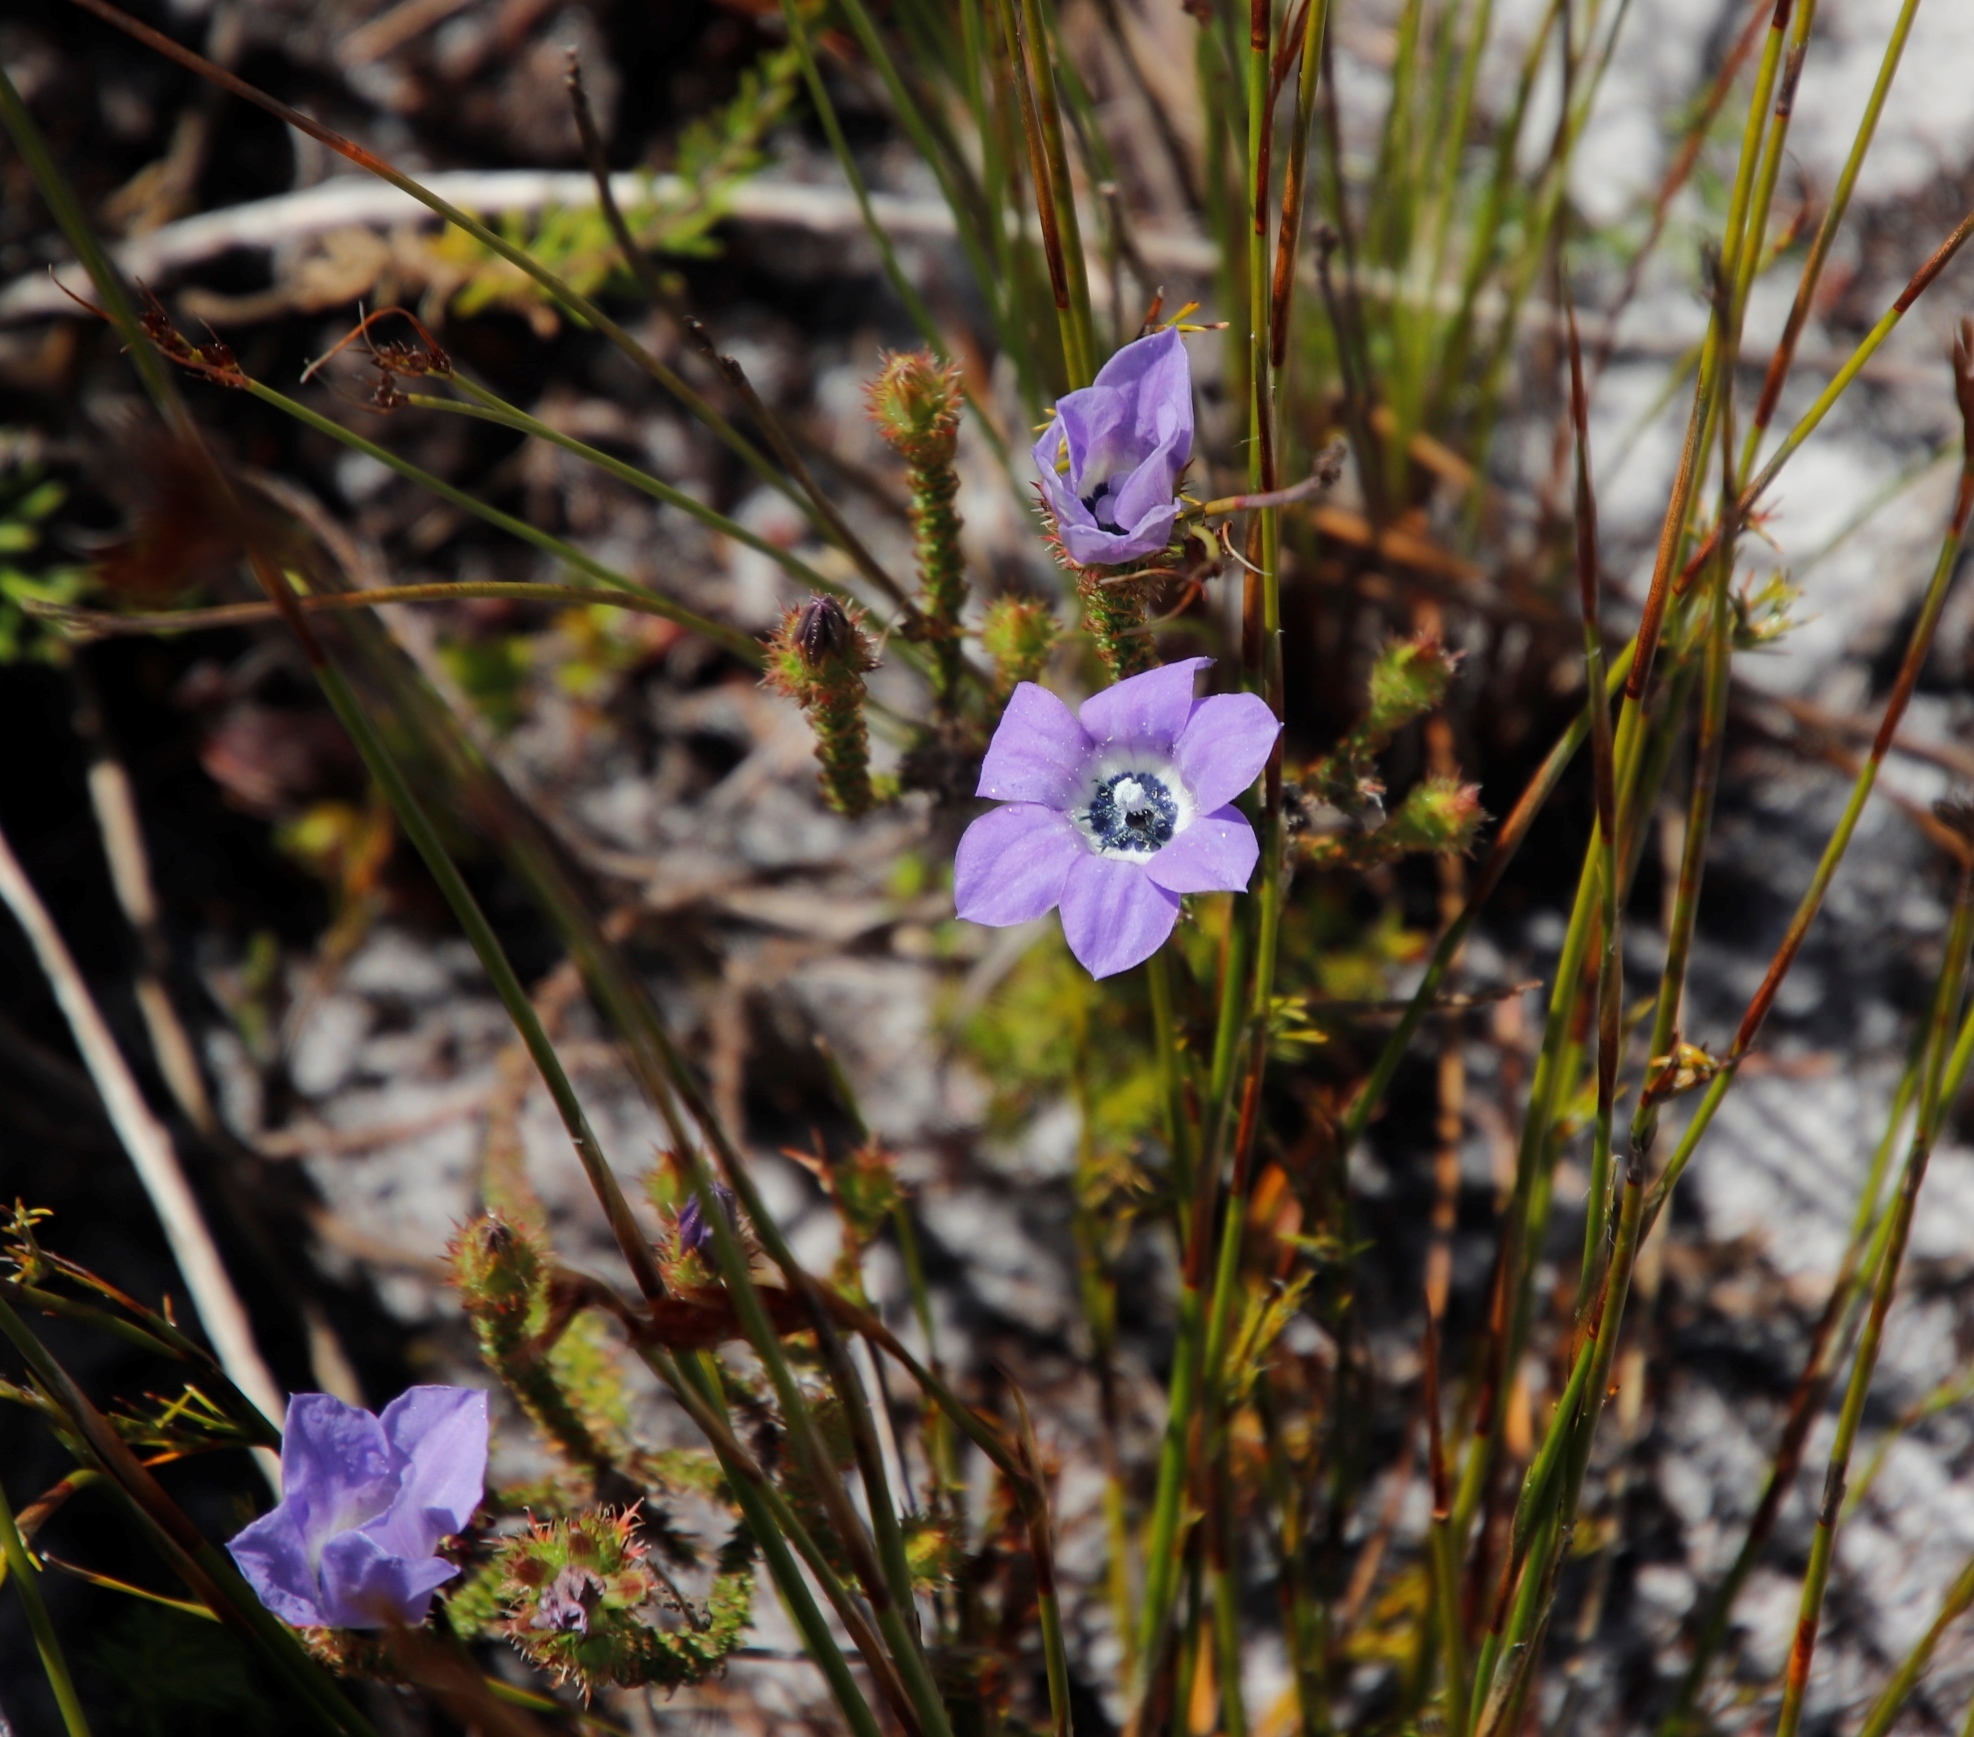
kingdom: Plantae
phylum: Tracheophyta
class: Magnoliopsida
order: Asterales
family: Campanulaceae
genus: Roella
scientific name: Roella triflora
